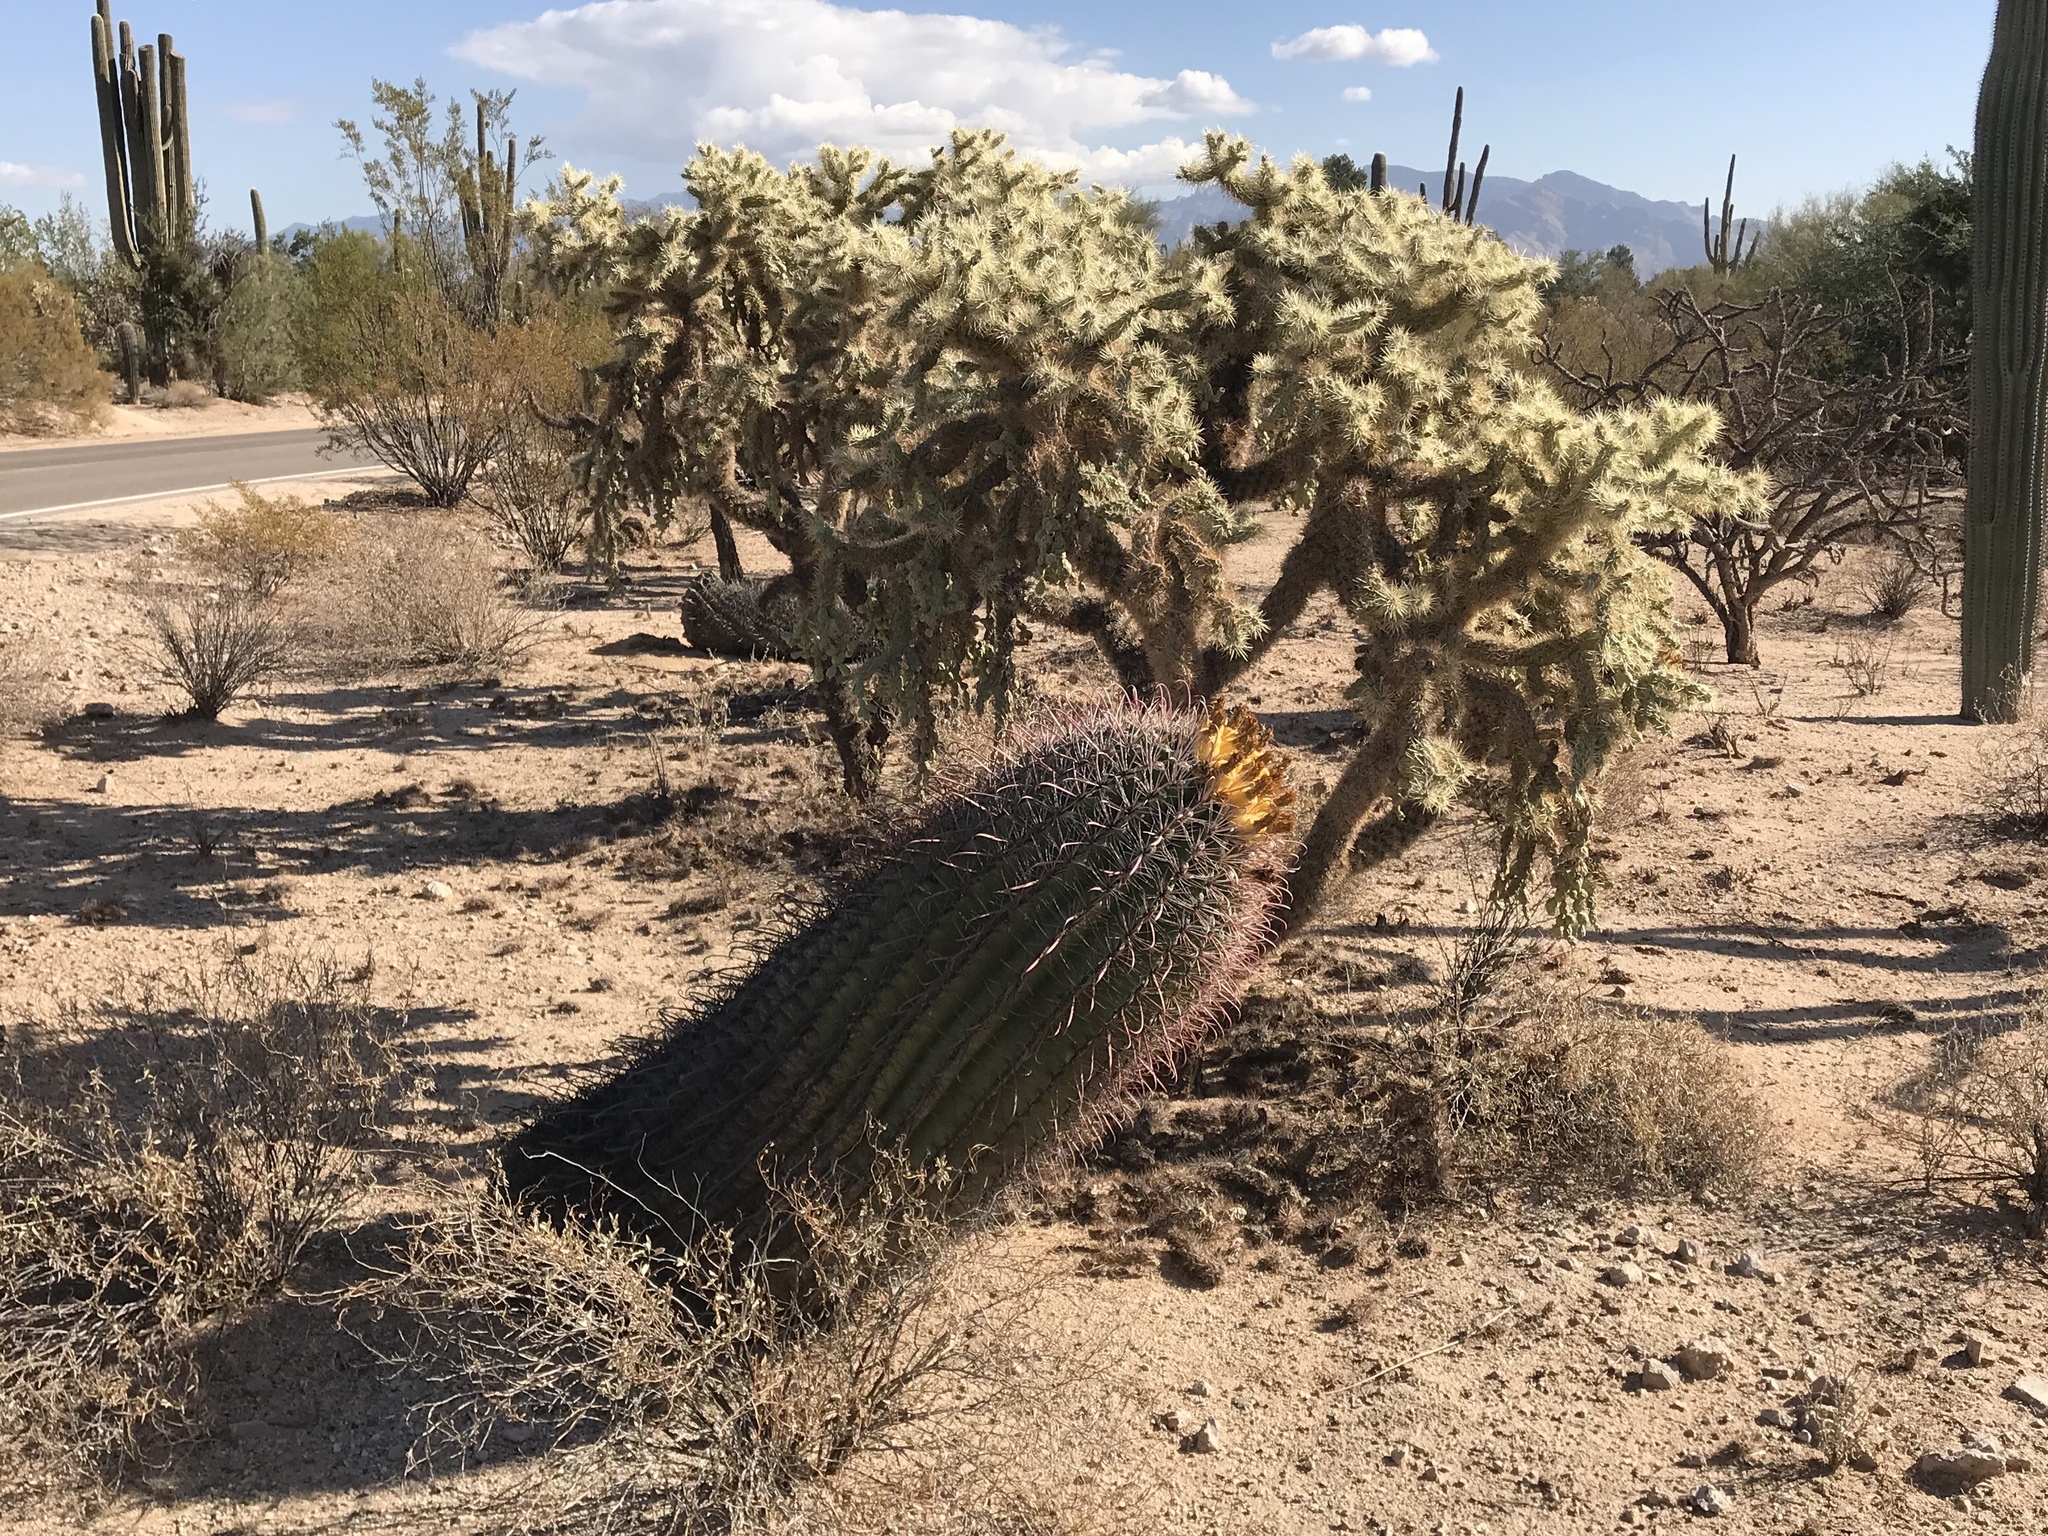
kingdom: Plantae
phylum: Tracheophyta
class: Magnoliopsida
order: Caryophyllales
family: Cactaceae
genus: Ferocactus
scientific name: Ferocactus wislizeni
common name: Candy barrel cactus
